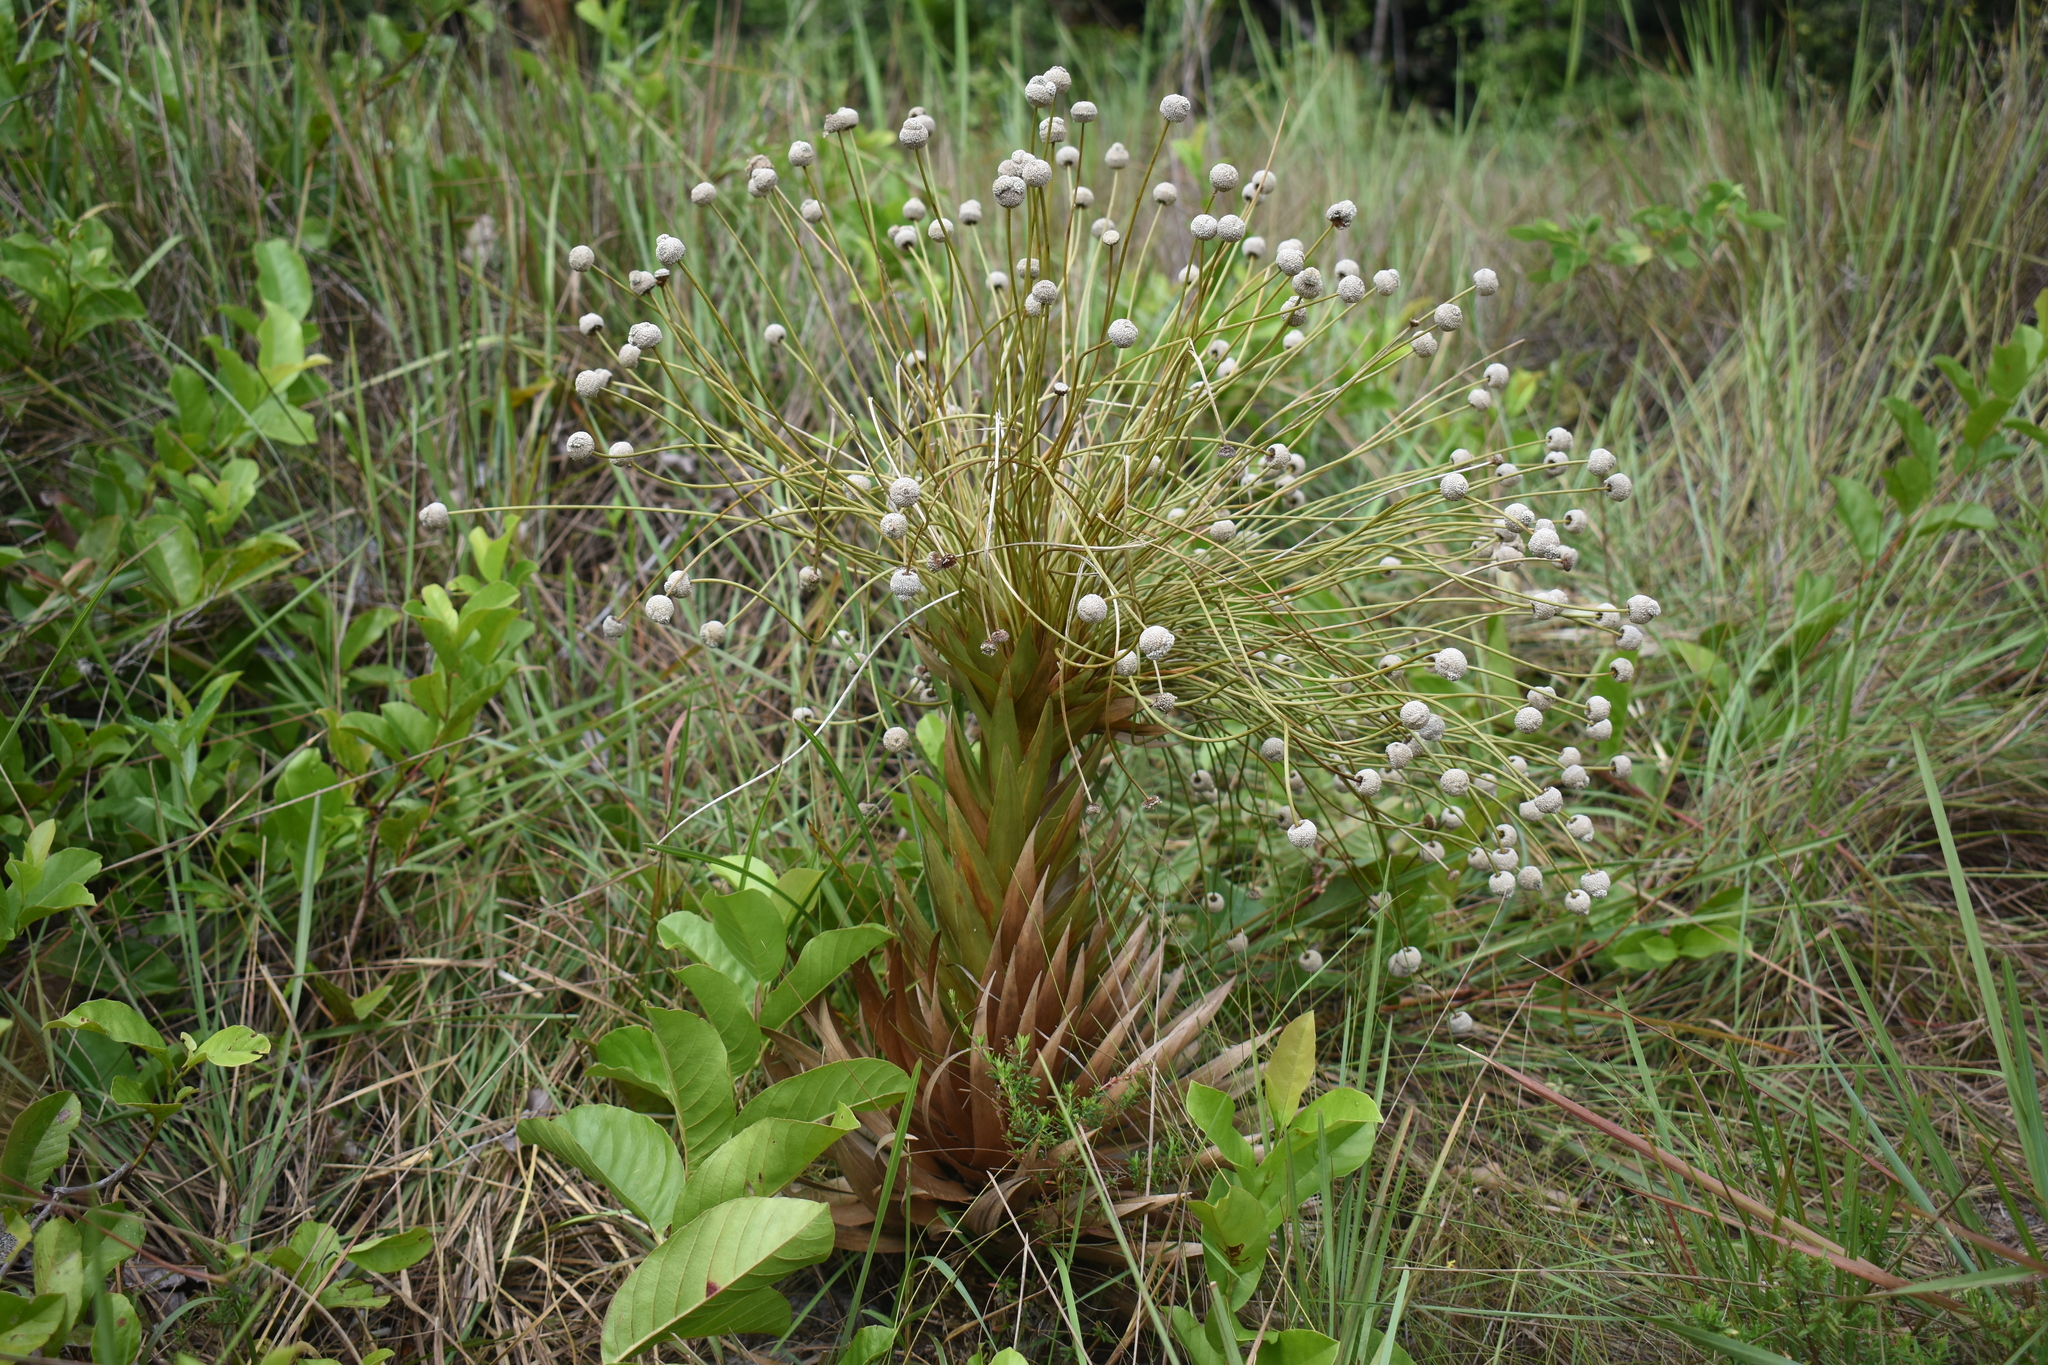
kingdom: Plantae
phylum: Tracheophyta
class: Liliopsida
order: Poales
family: Eriocaulaceae
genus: Paepalanthus
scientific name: Paepalanthus chiquitensis
